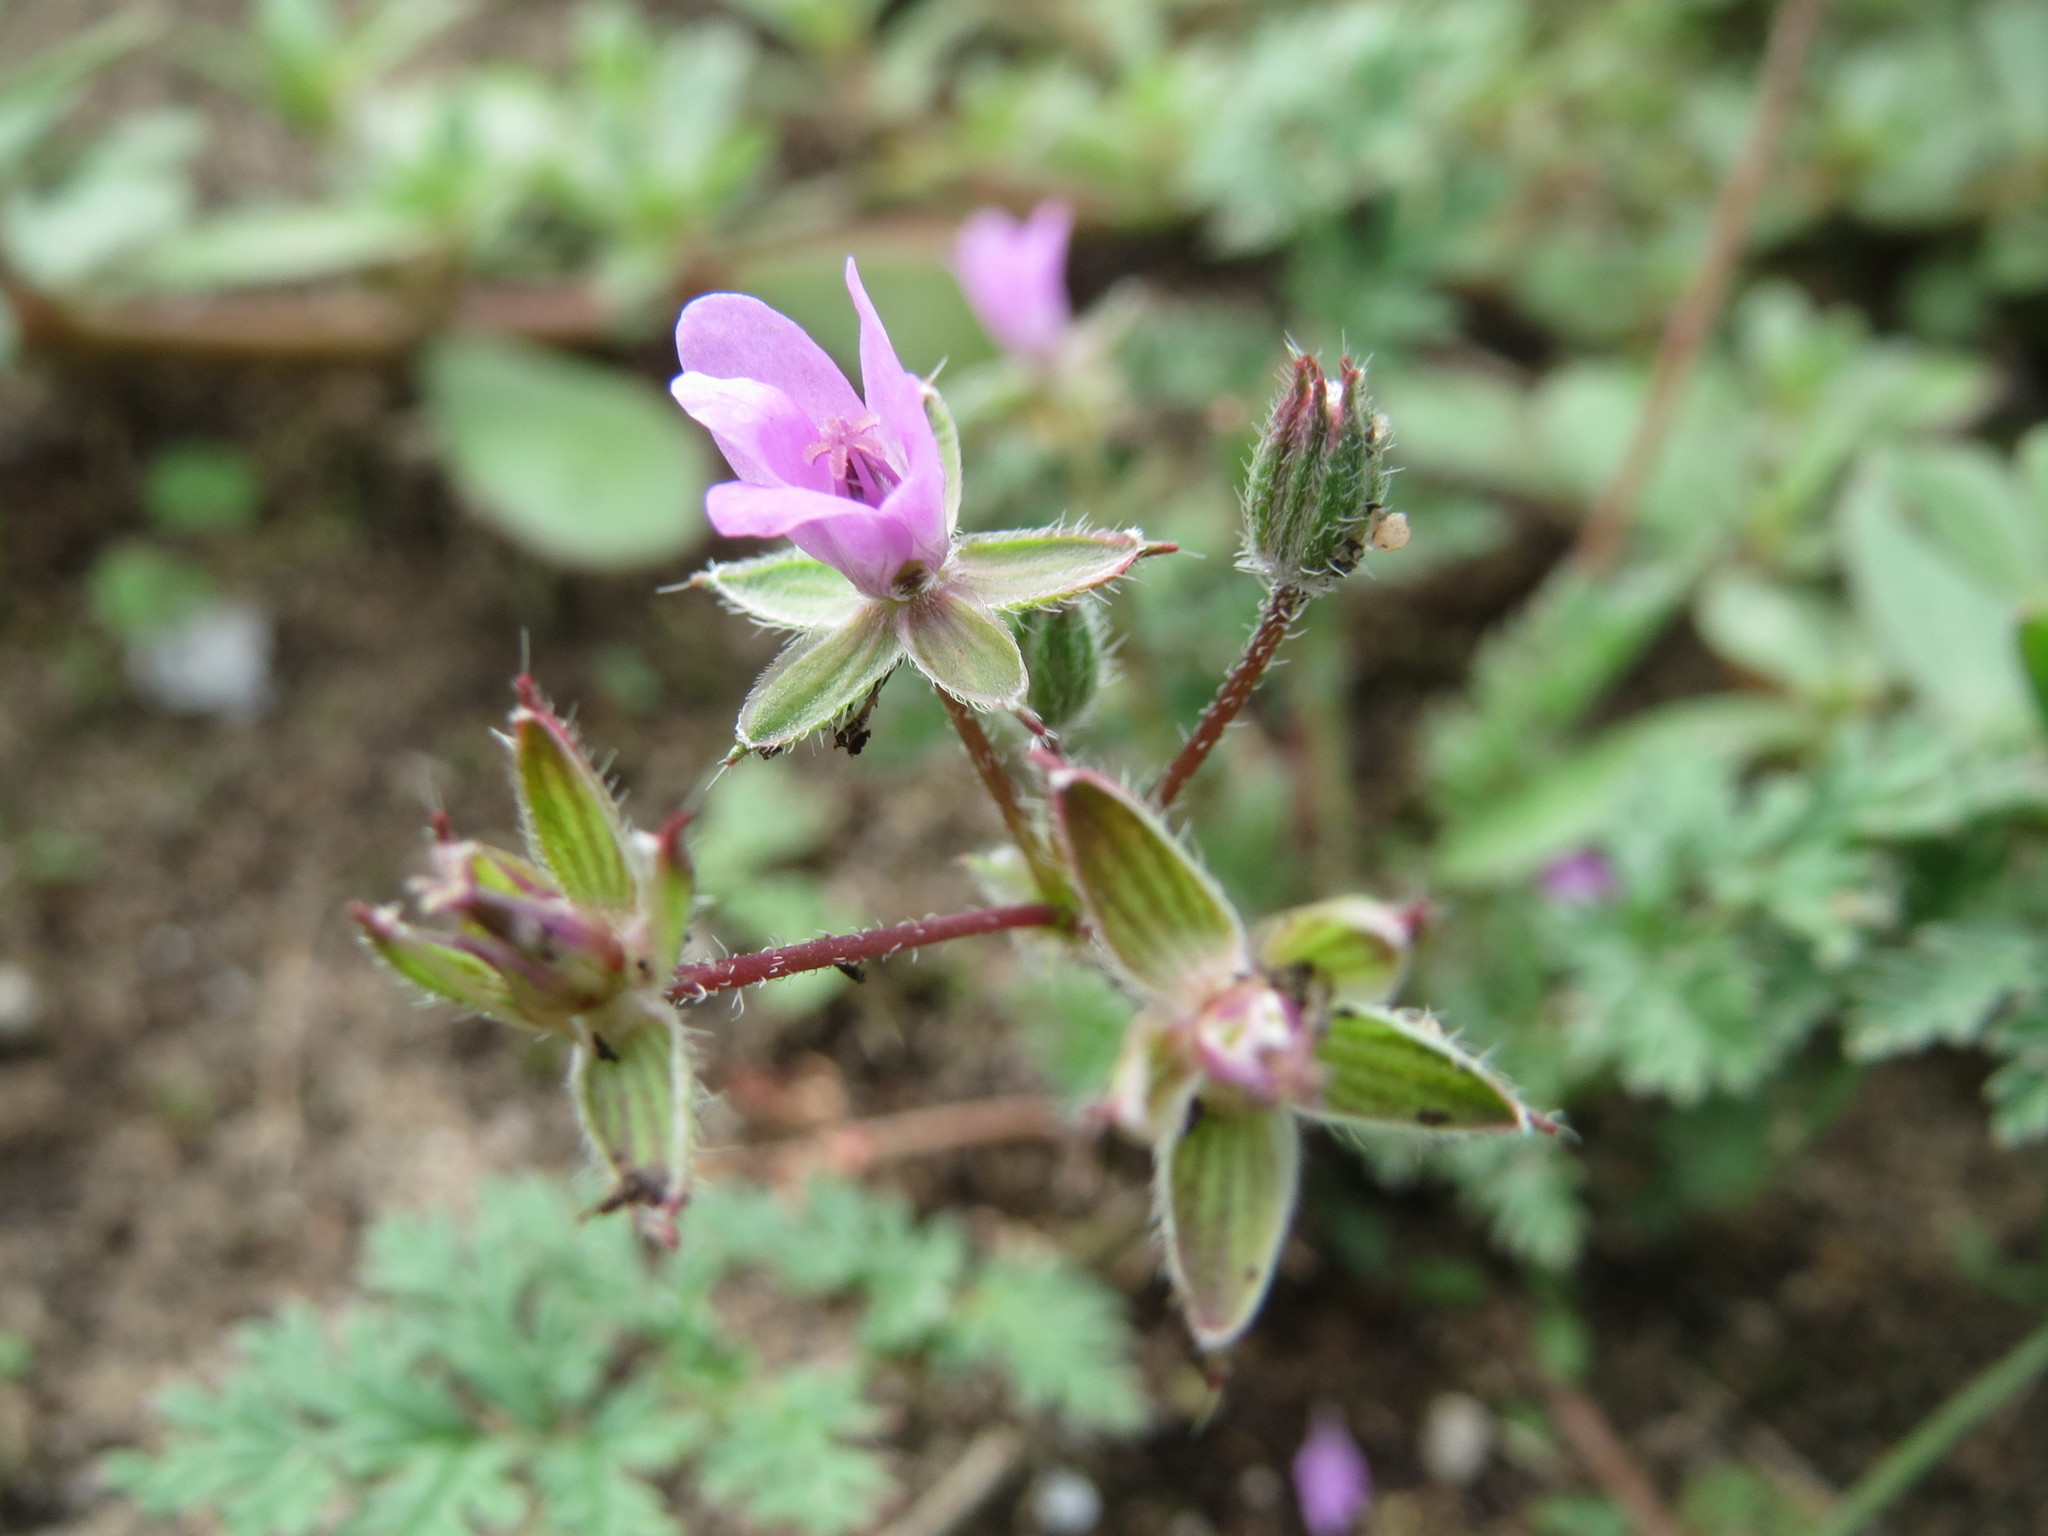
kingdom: Plantae
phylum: Tracheophyta
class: Magnoliopsida
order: Geraniales
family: Geraniaceae
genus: Erodium
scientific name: Erodium cicutarium
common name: Common stork's-bill
